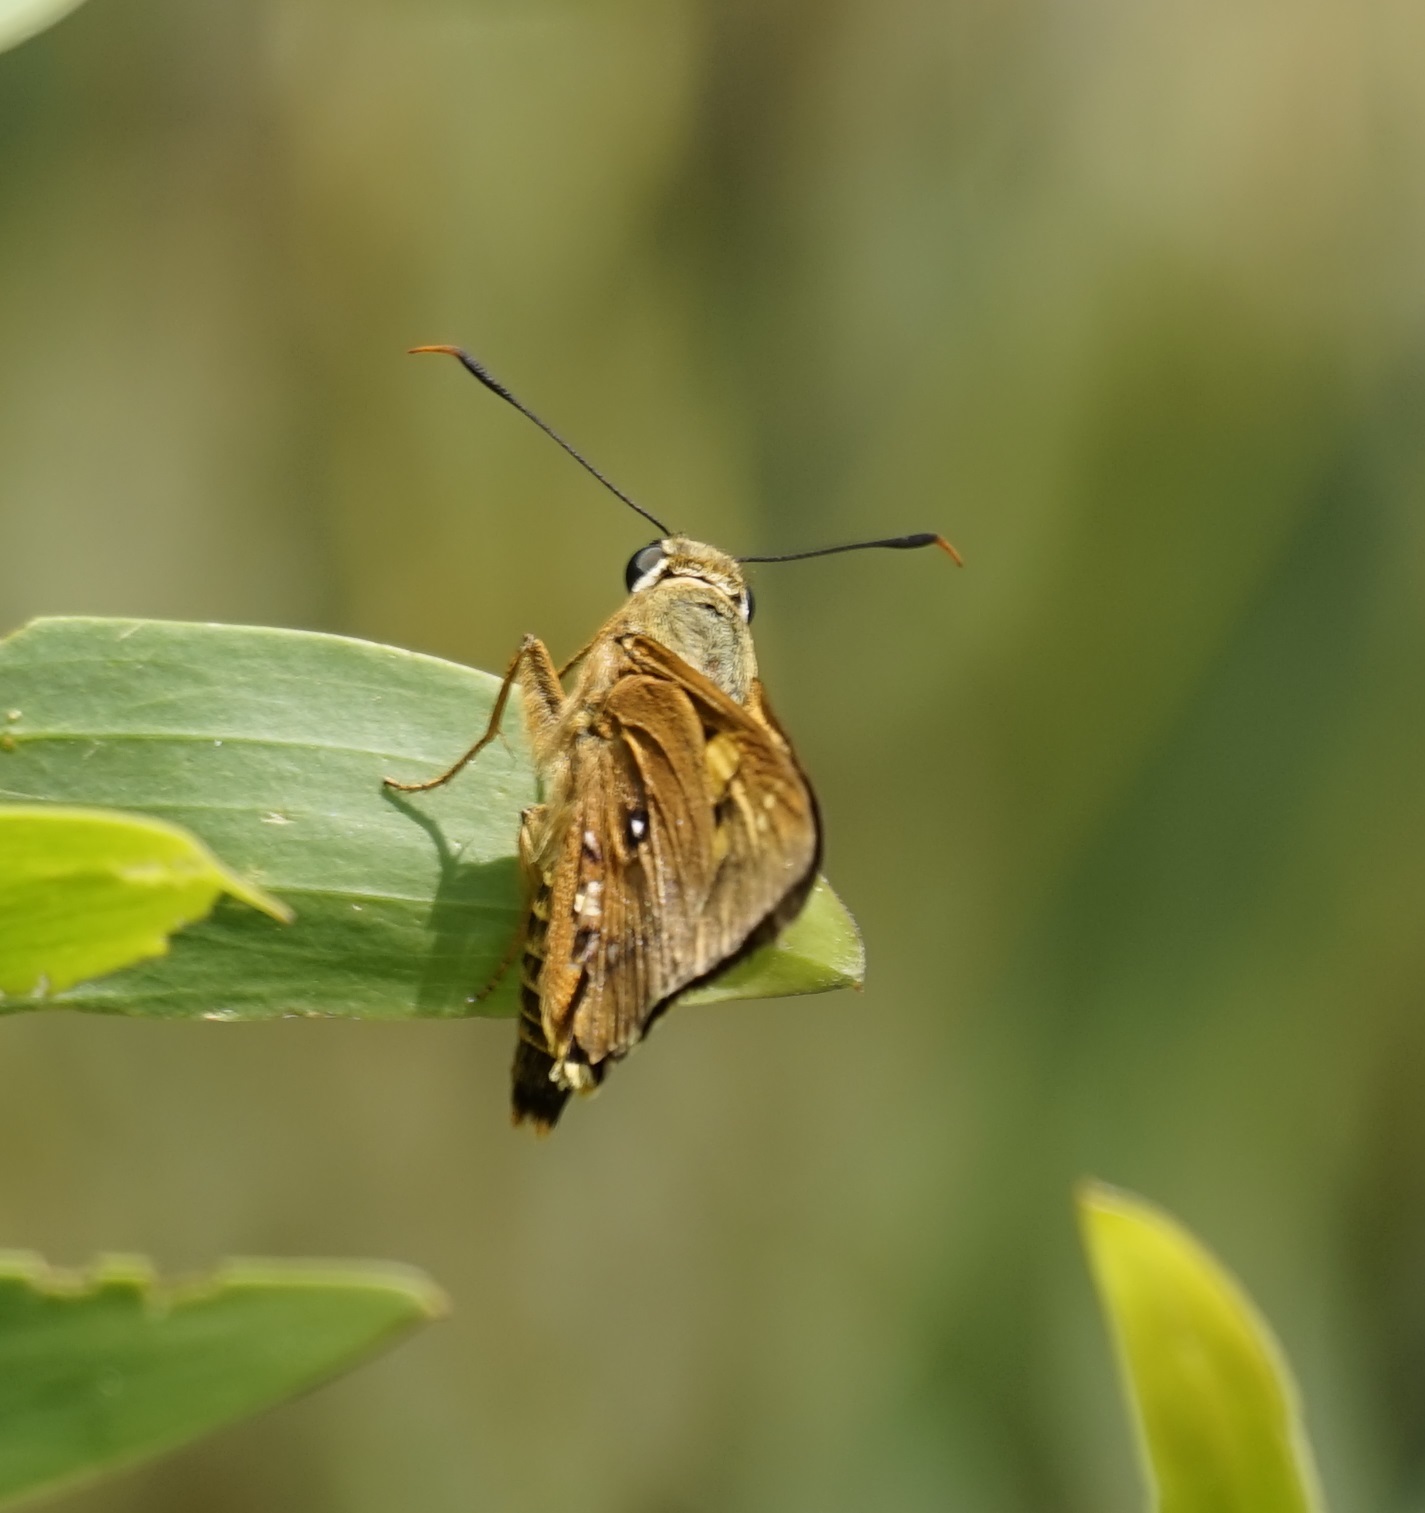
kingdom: Animalia
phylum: Arthropoda
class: Insecta
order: Lepidoptera
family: Hesperiidae
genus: Trapezites
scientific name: Trapezites symmomus
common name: Splendid ochre
